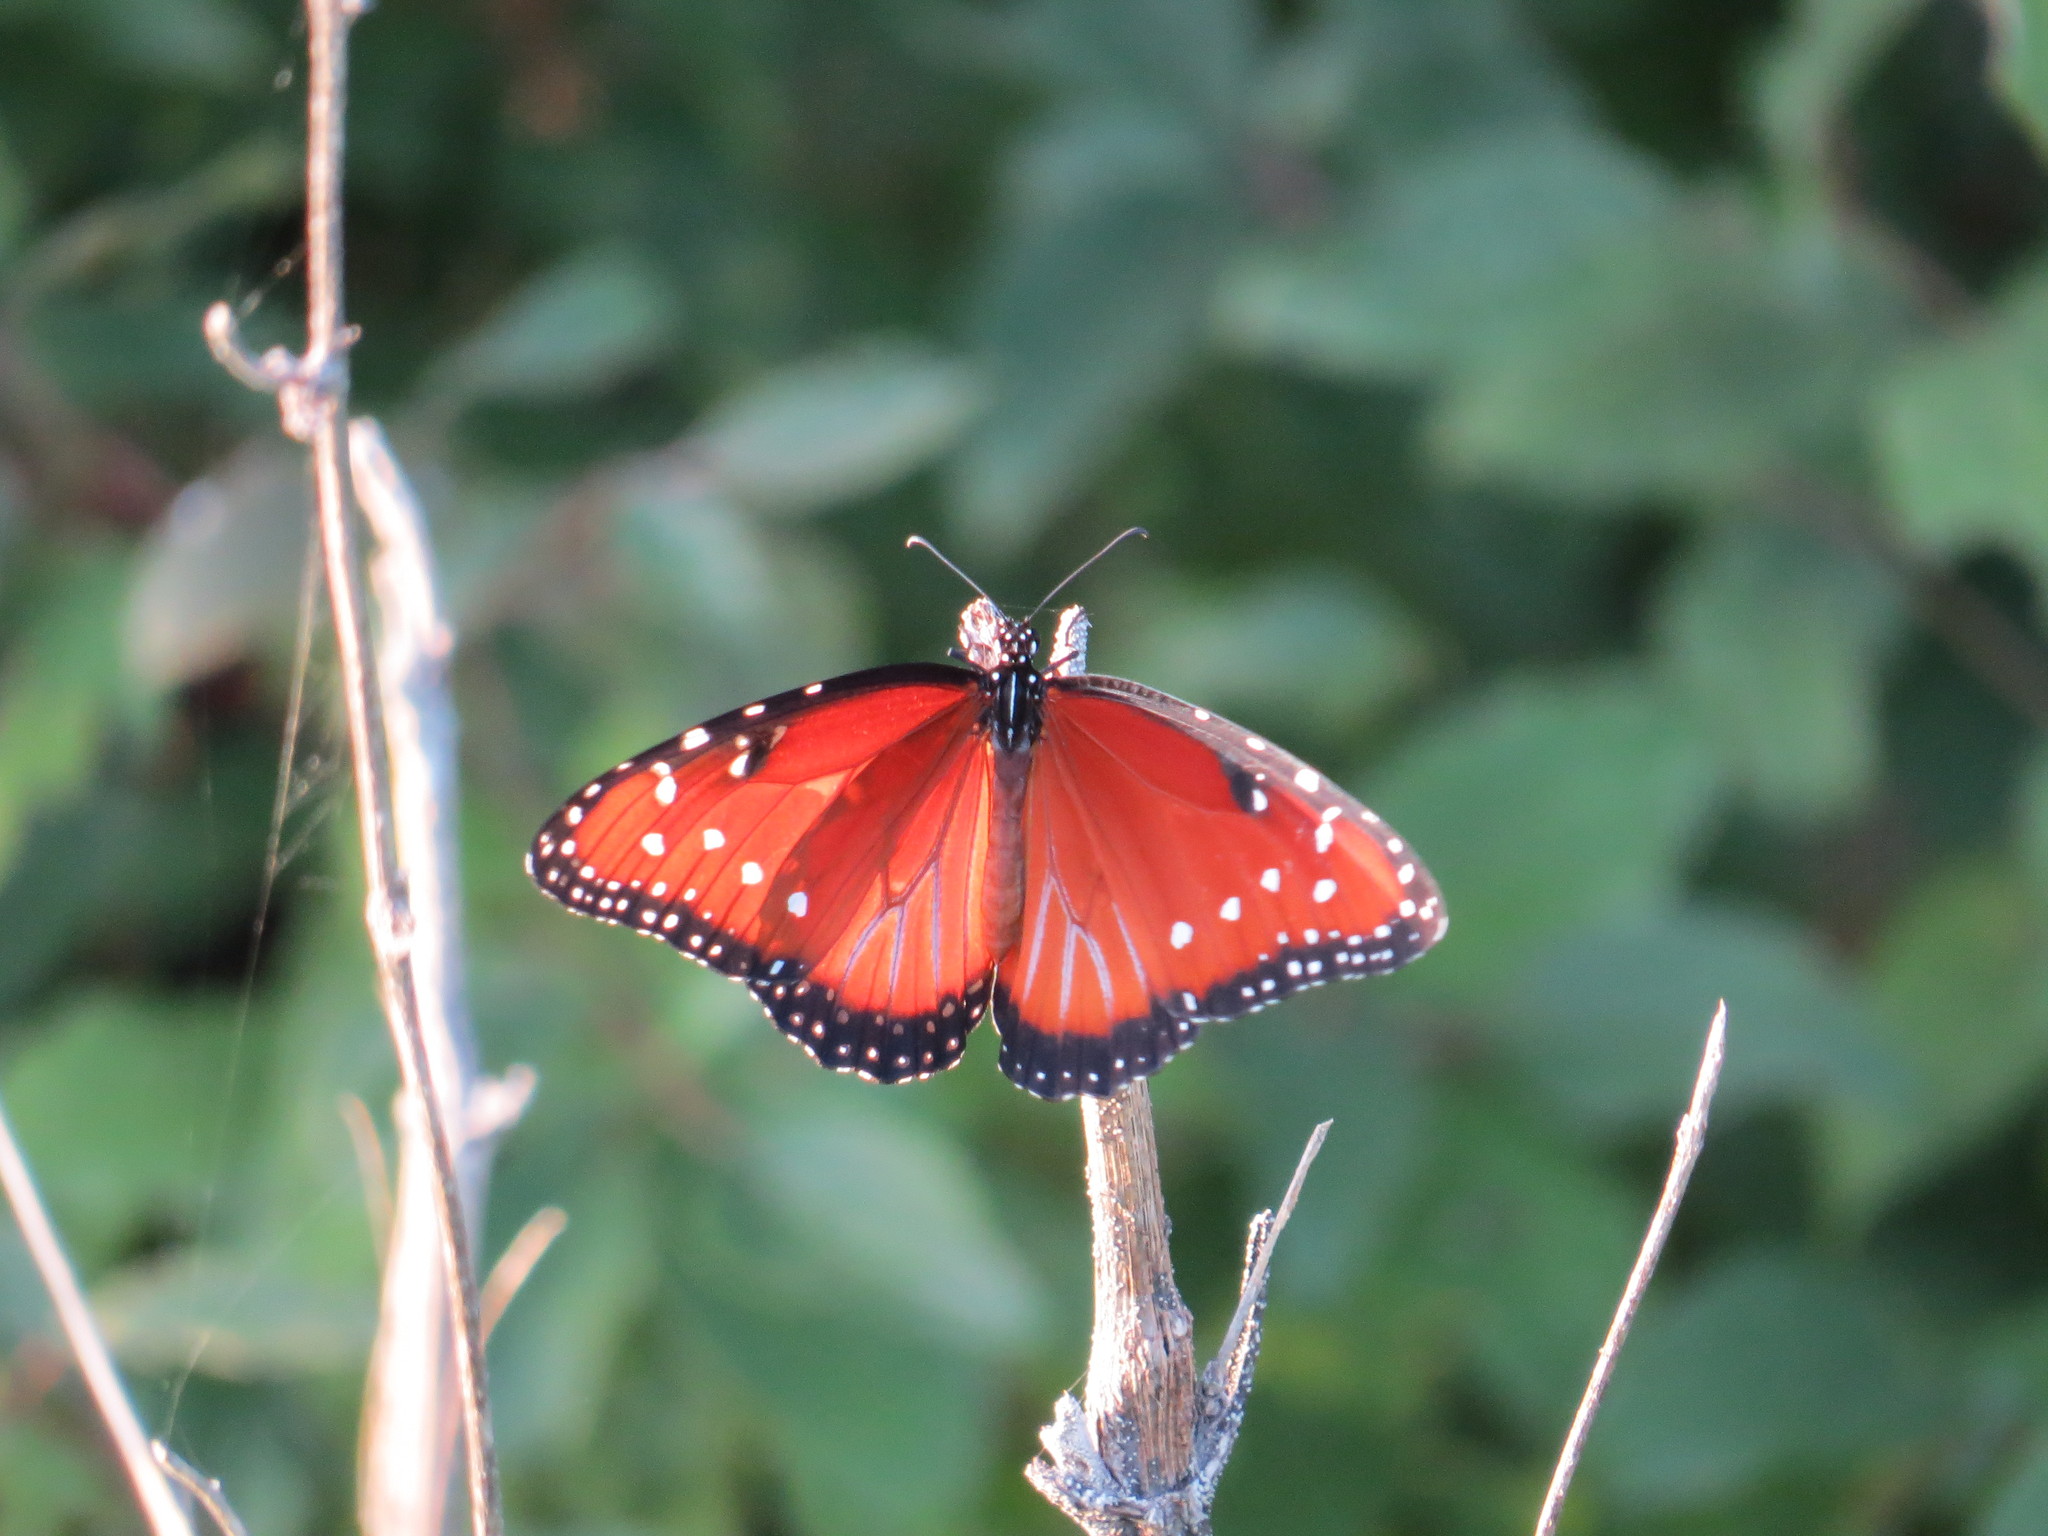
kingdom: Animalia
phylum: Arthropoda
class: Insecta
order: Lepidoptera
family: Nymphalidae
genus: Danaus
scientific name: Danaus gilippus
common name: Queen
